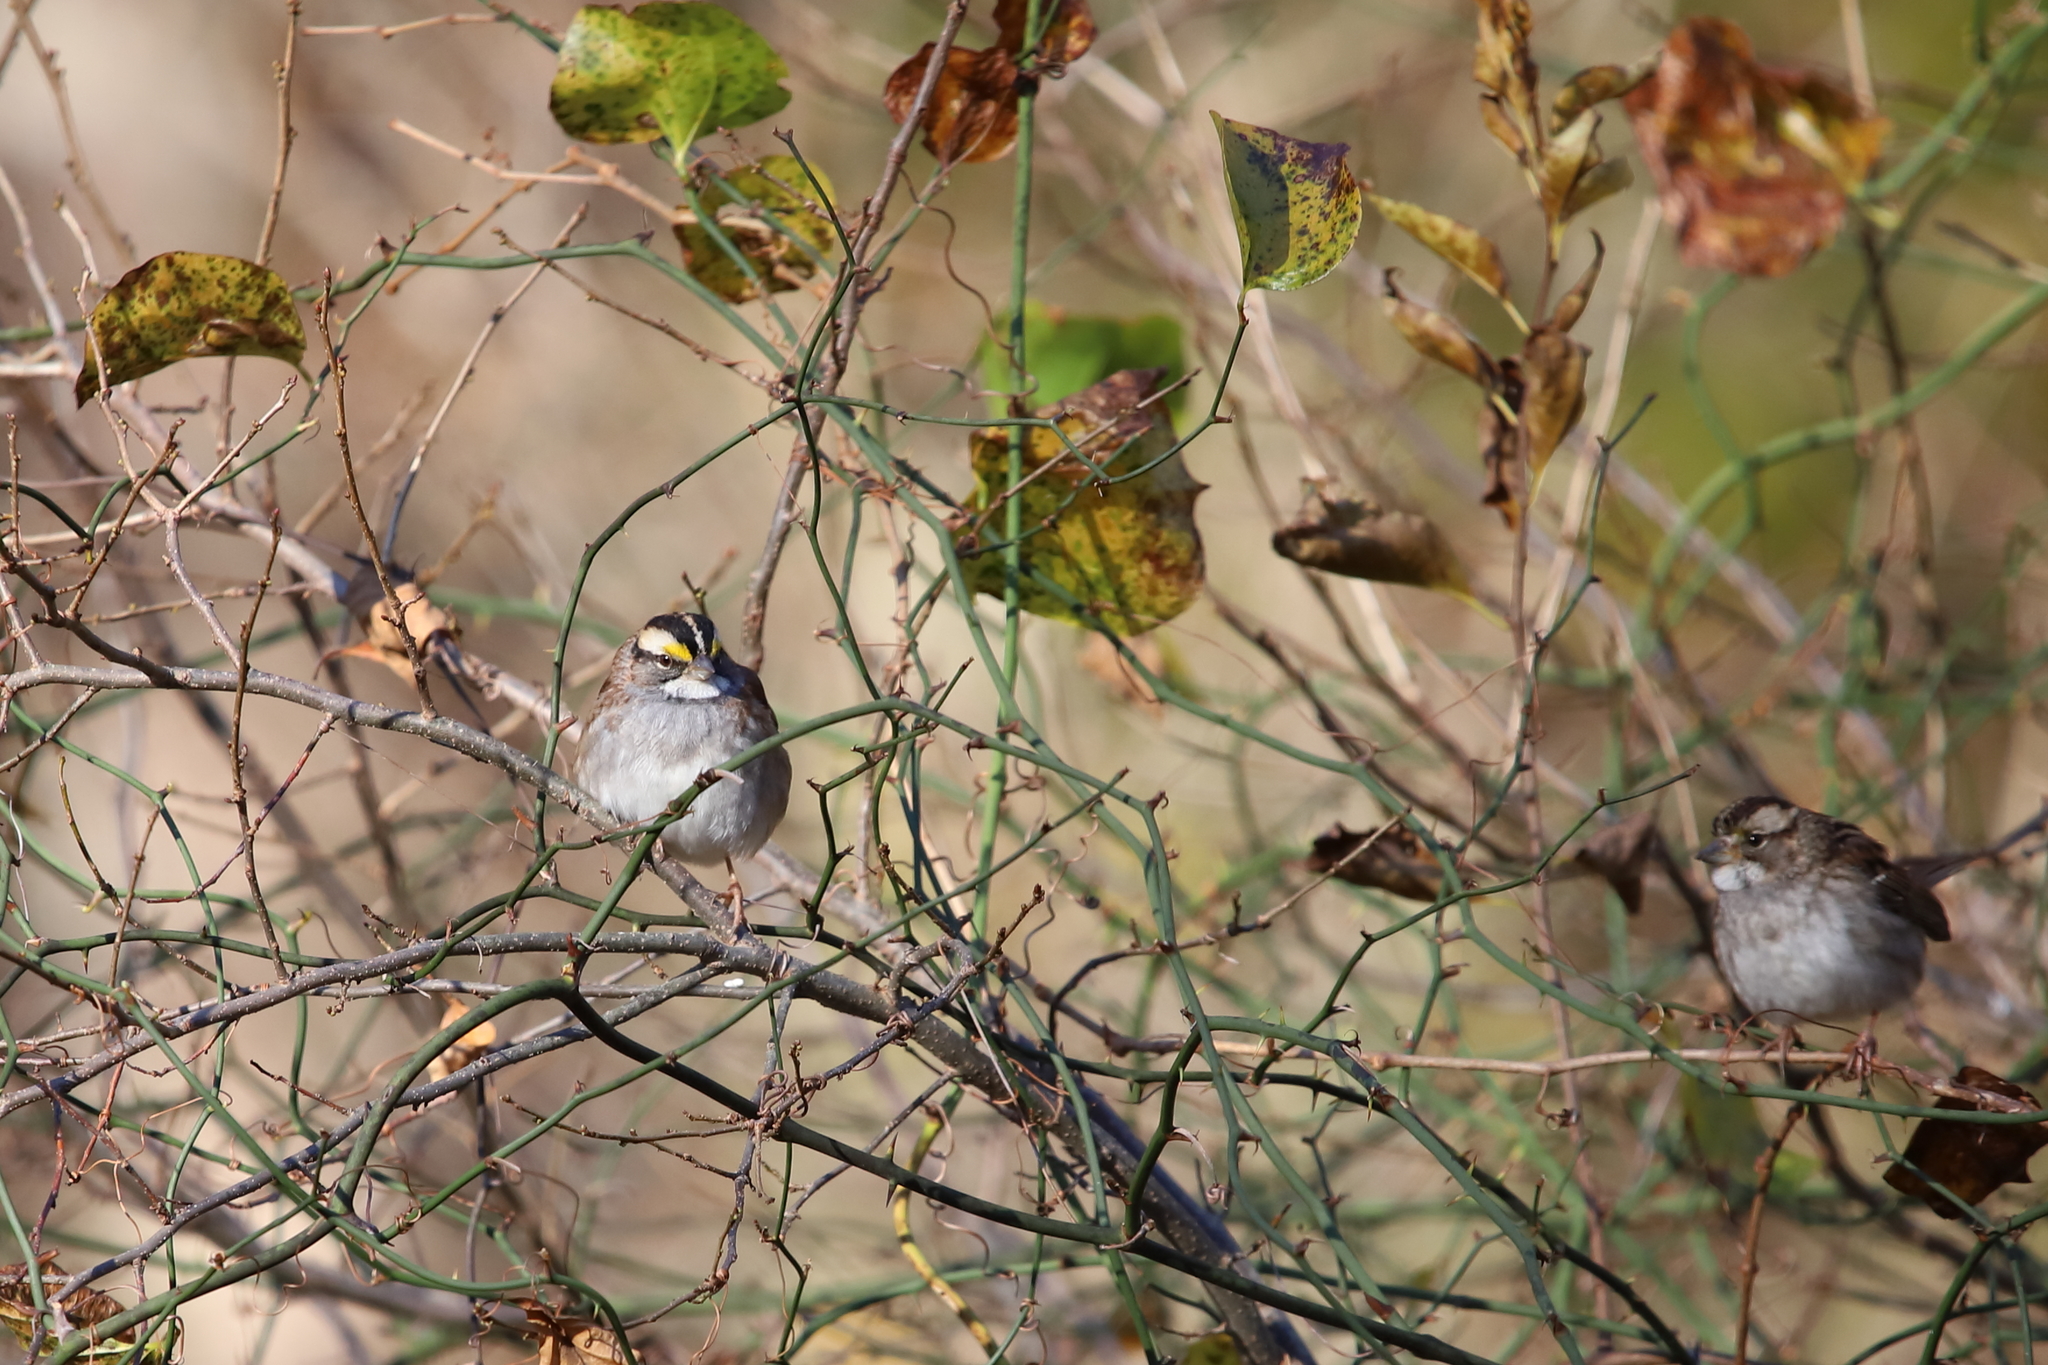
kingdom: Animalia
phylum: Chordata
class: Aves
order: Passeriformes
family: Passerellidae
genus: Zonotrichia
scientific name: Zonotrichia albicollis
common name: White-throated sparrow
